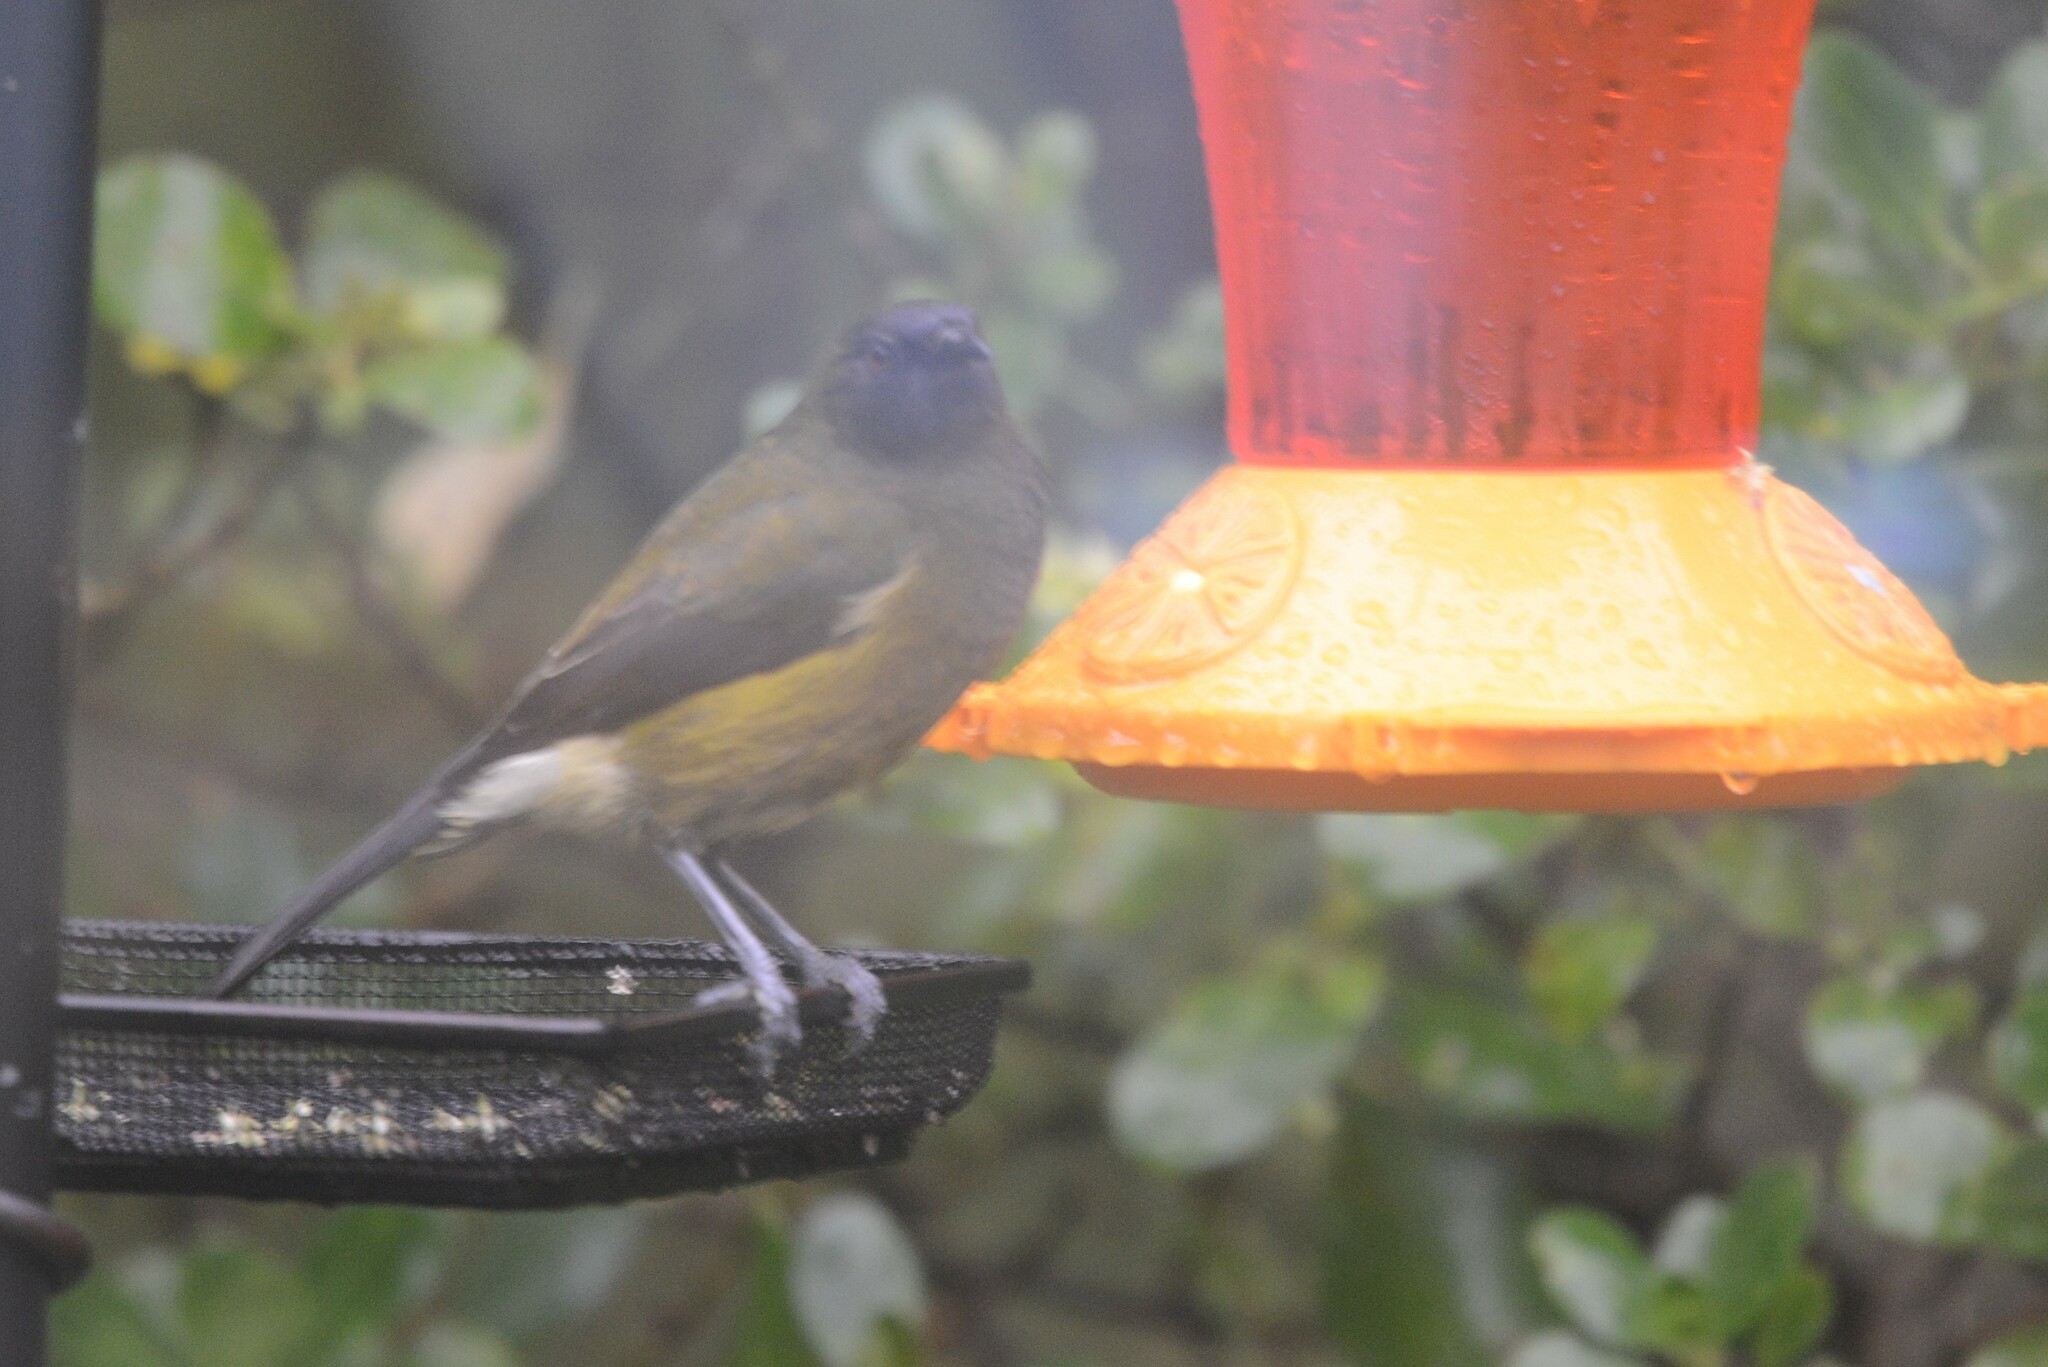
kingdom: Animalia
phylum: Chordata
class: Aves
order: Passeriformes
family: Meliphagidae
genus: Anthornis
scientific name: Anthornis melanura
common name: New zealand bellbird
